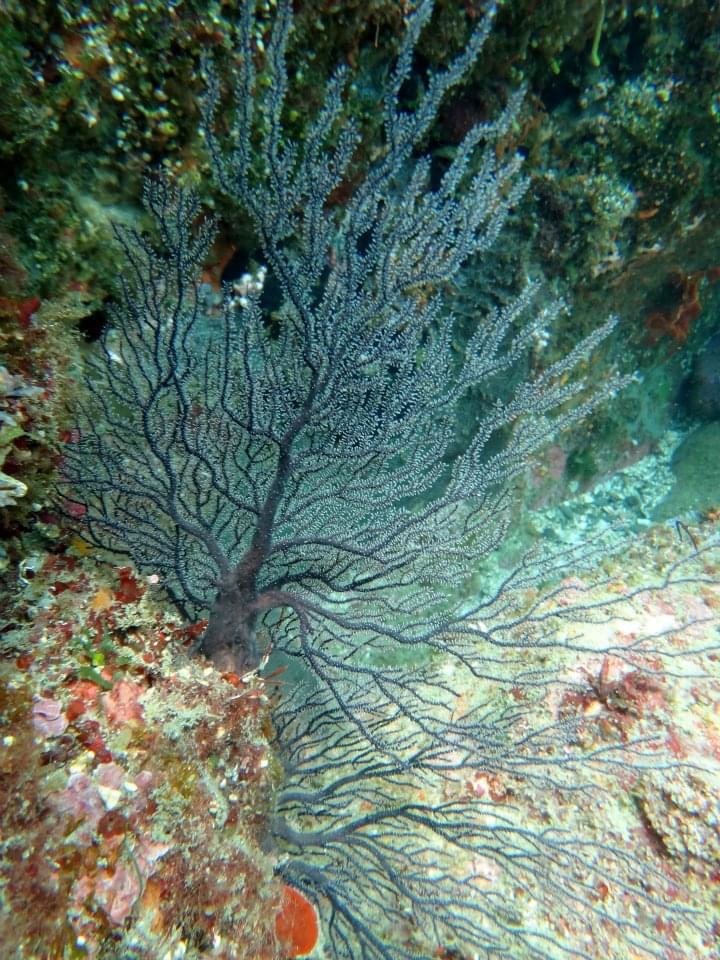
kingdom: Animalia
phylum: Cnidaria
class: Hydrozoa
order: Anthoathecata
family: Solanderiidae
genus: Solanderia
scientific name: Solanderia secunda
